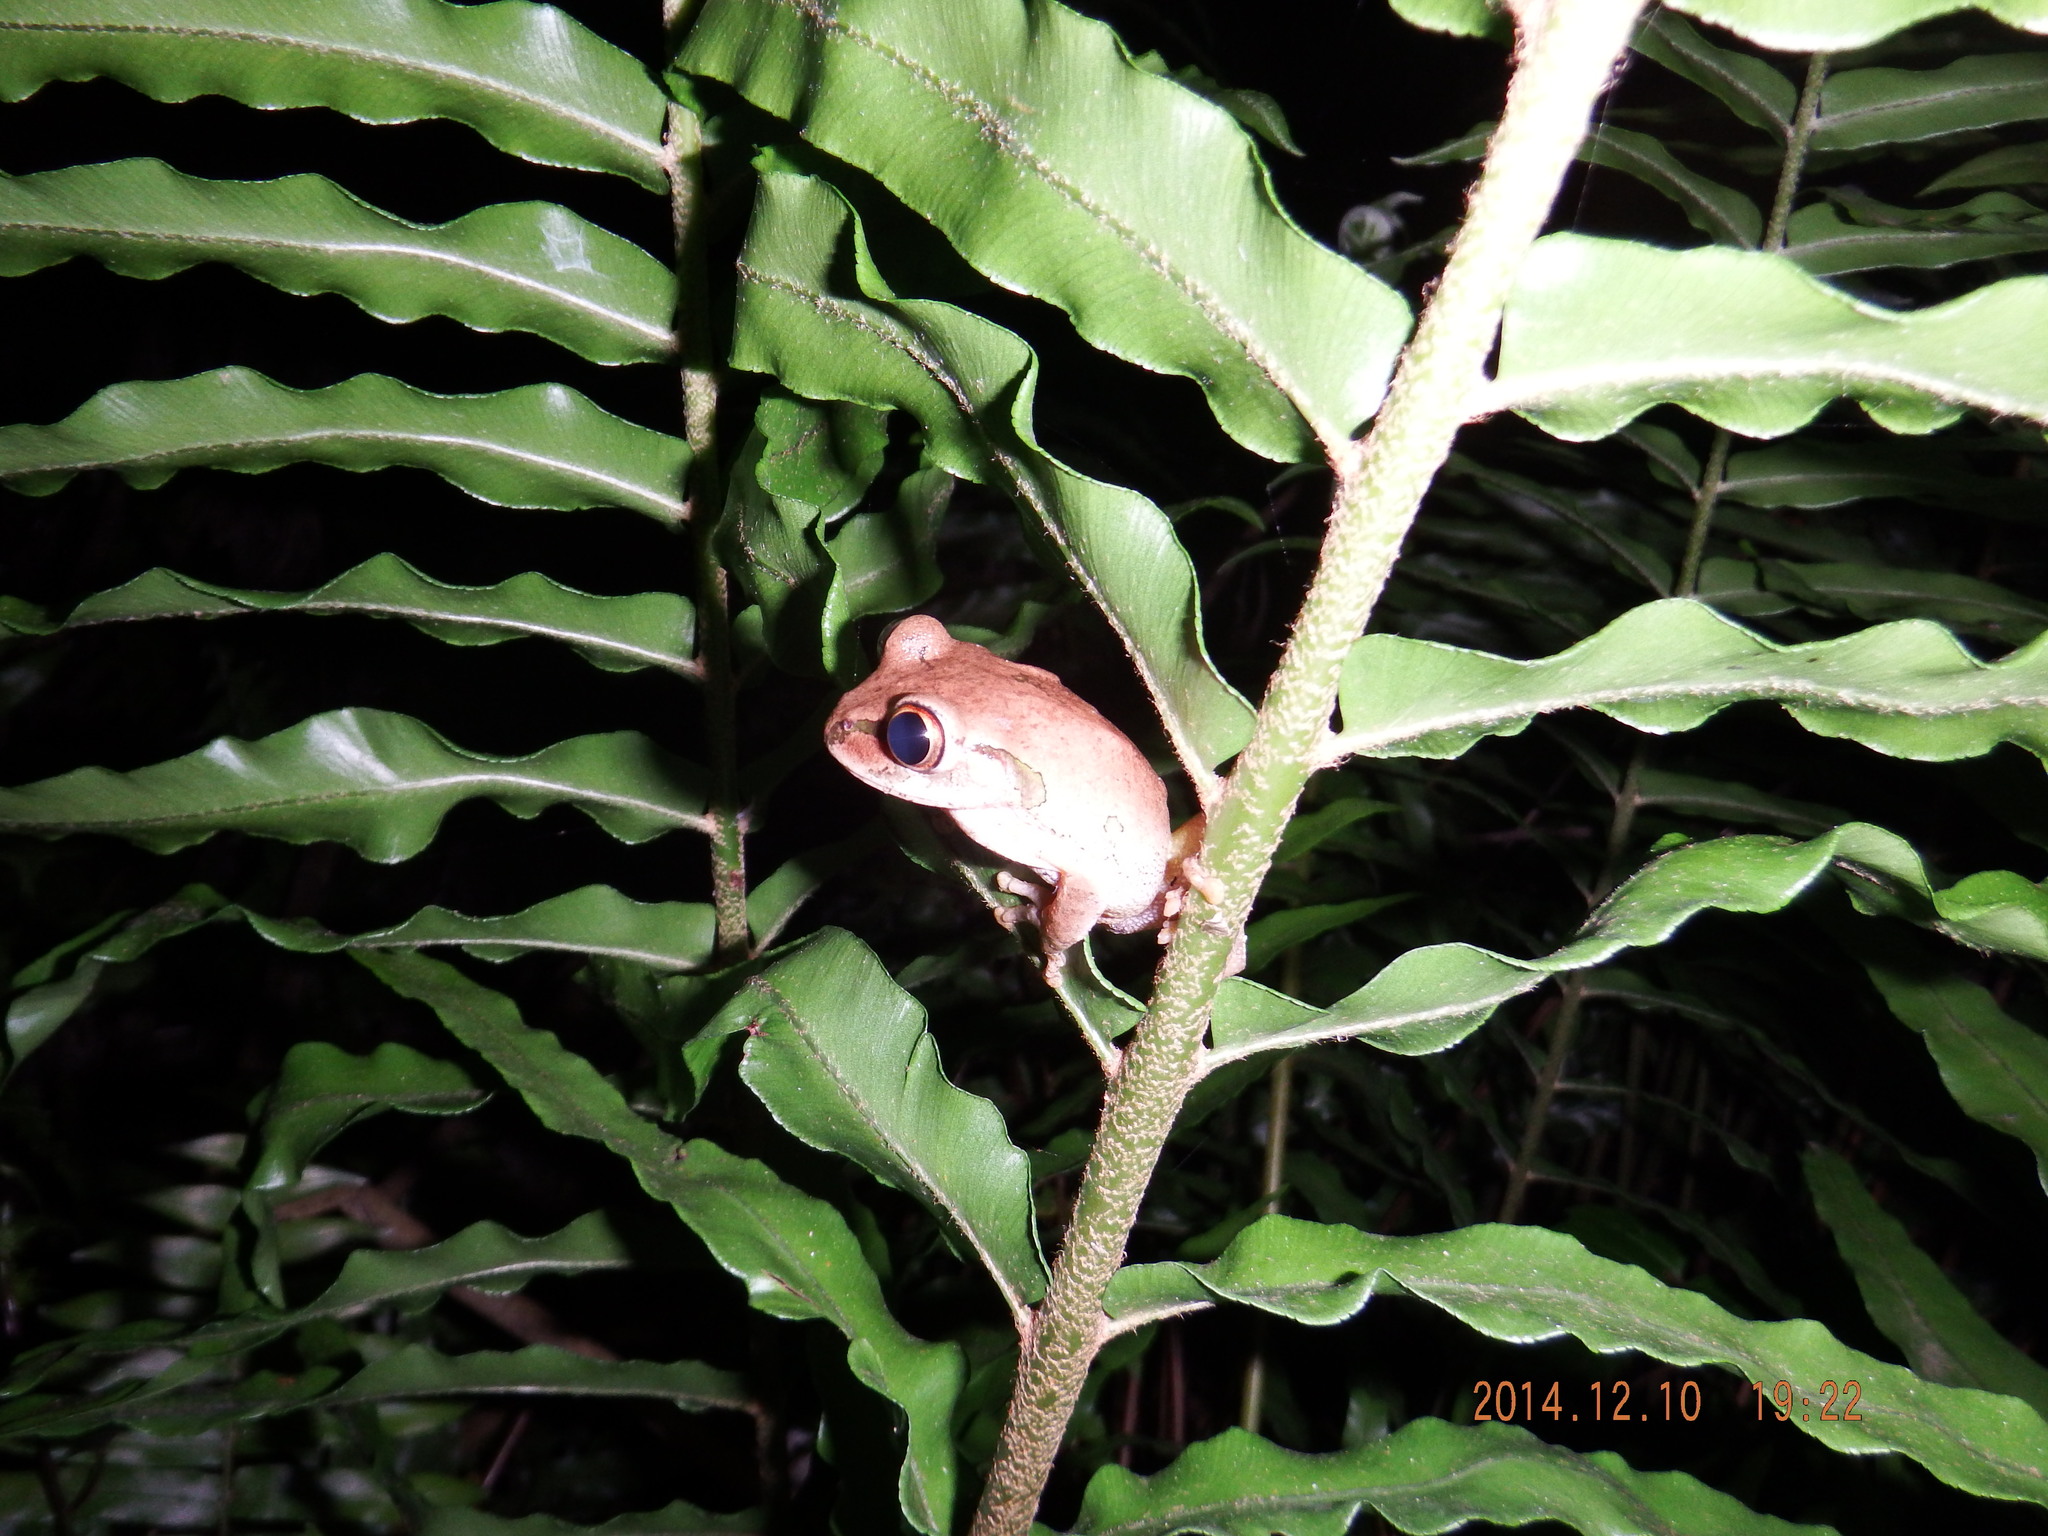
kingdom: Animalia
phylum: Chordata
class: Amphibia
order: Anura
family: Arthroleptidae
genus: Leptopelis
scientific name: Leptopelis natalensis
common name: Natal tree frog
